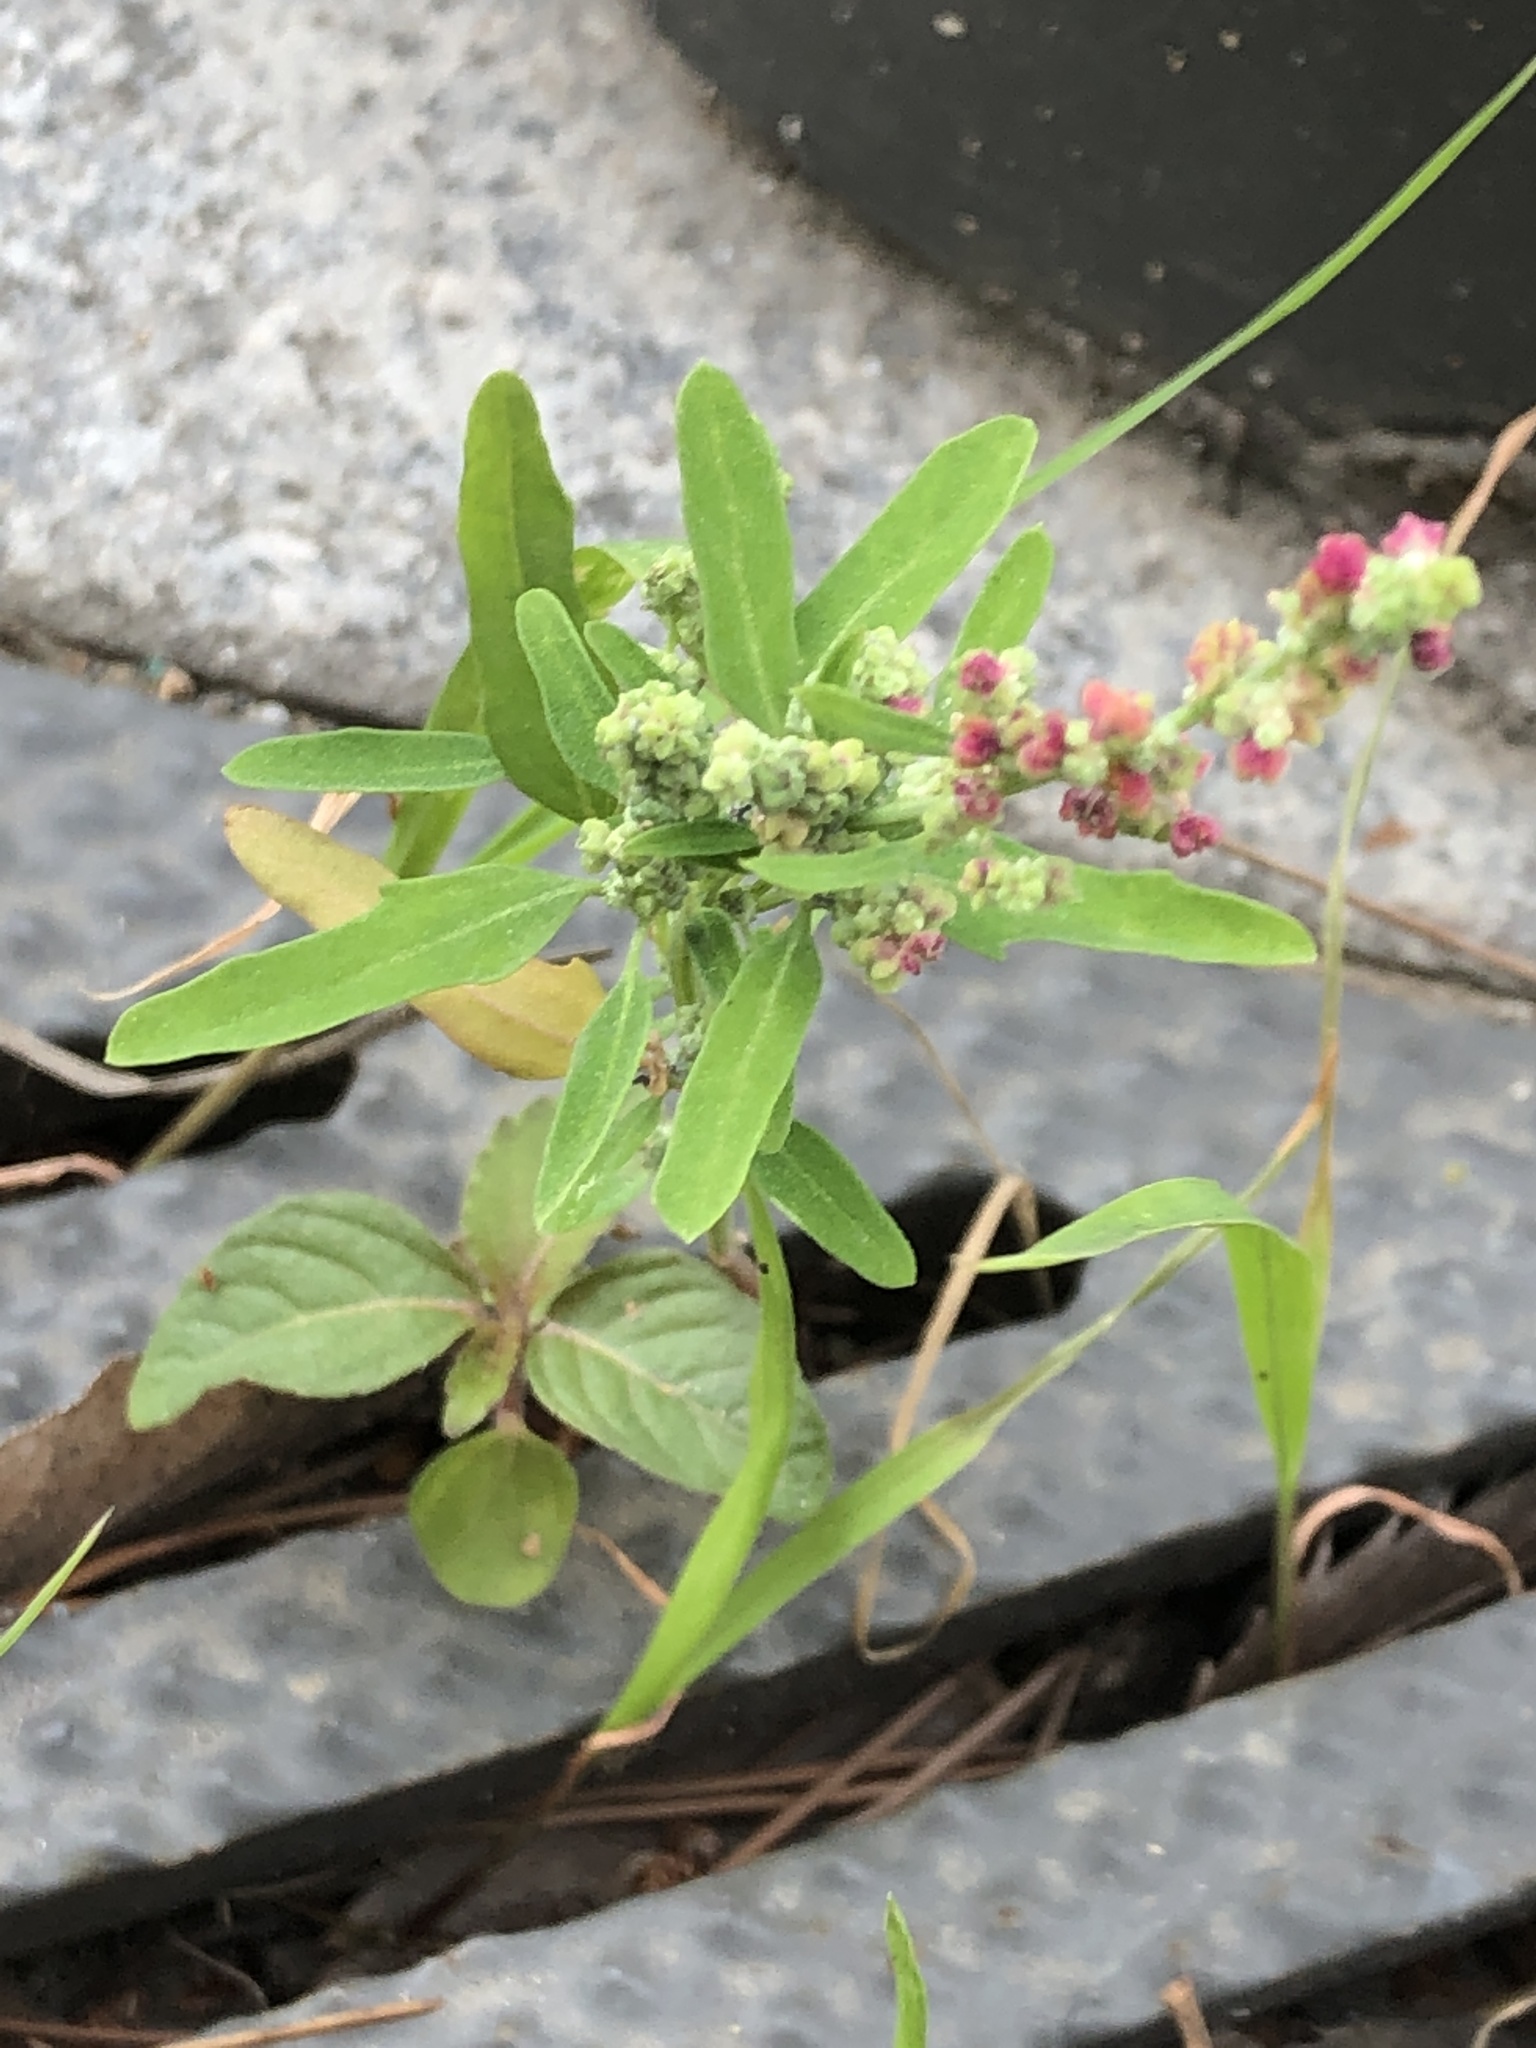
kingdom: Plantae
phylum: Tracheophyta
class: Magnoliopsida
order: Caryophyllales
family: Amaranthaceae
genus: Chenopodium
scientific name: Chenopodium ficifolium
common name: Fig-leaved goosefoot
